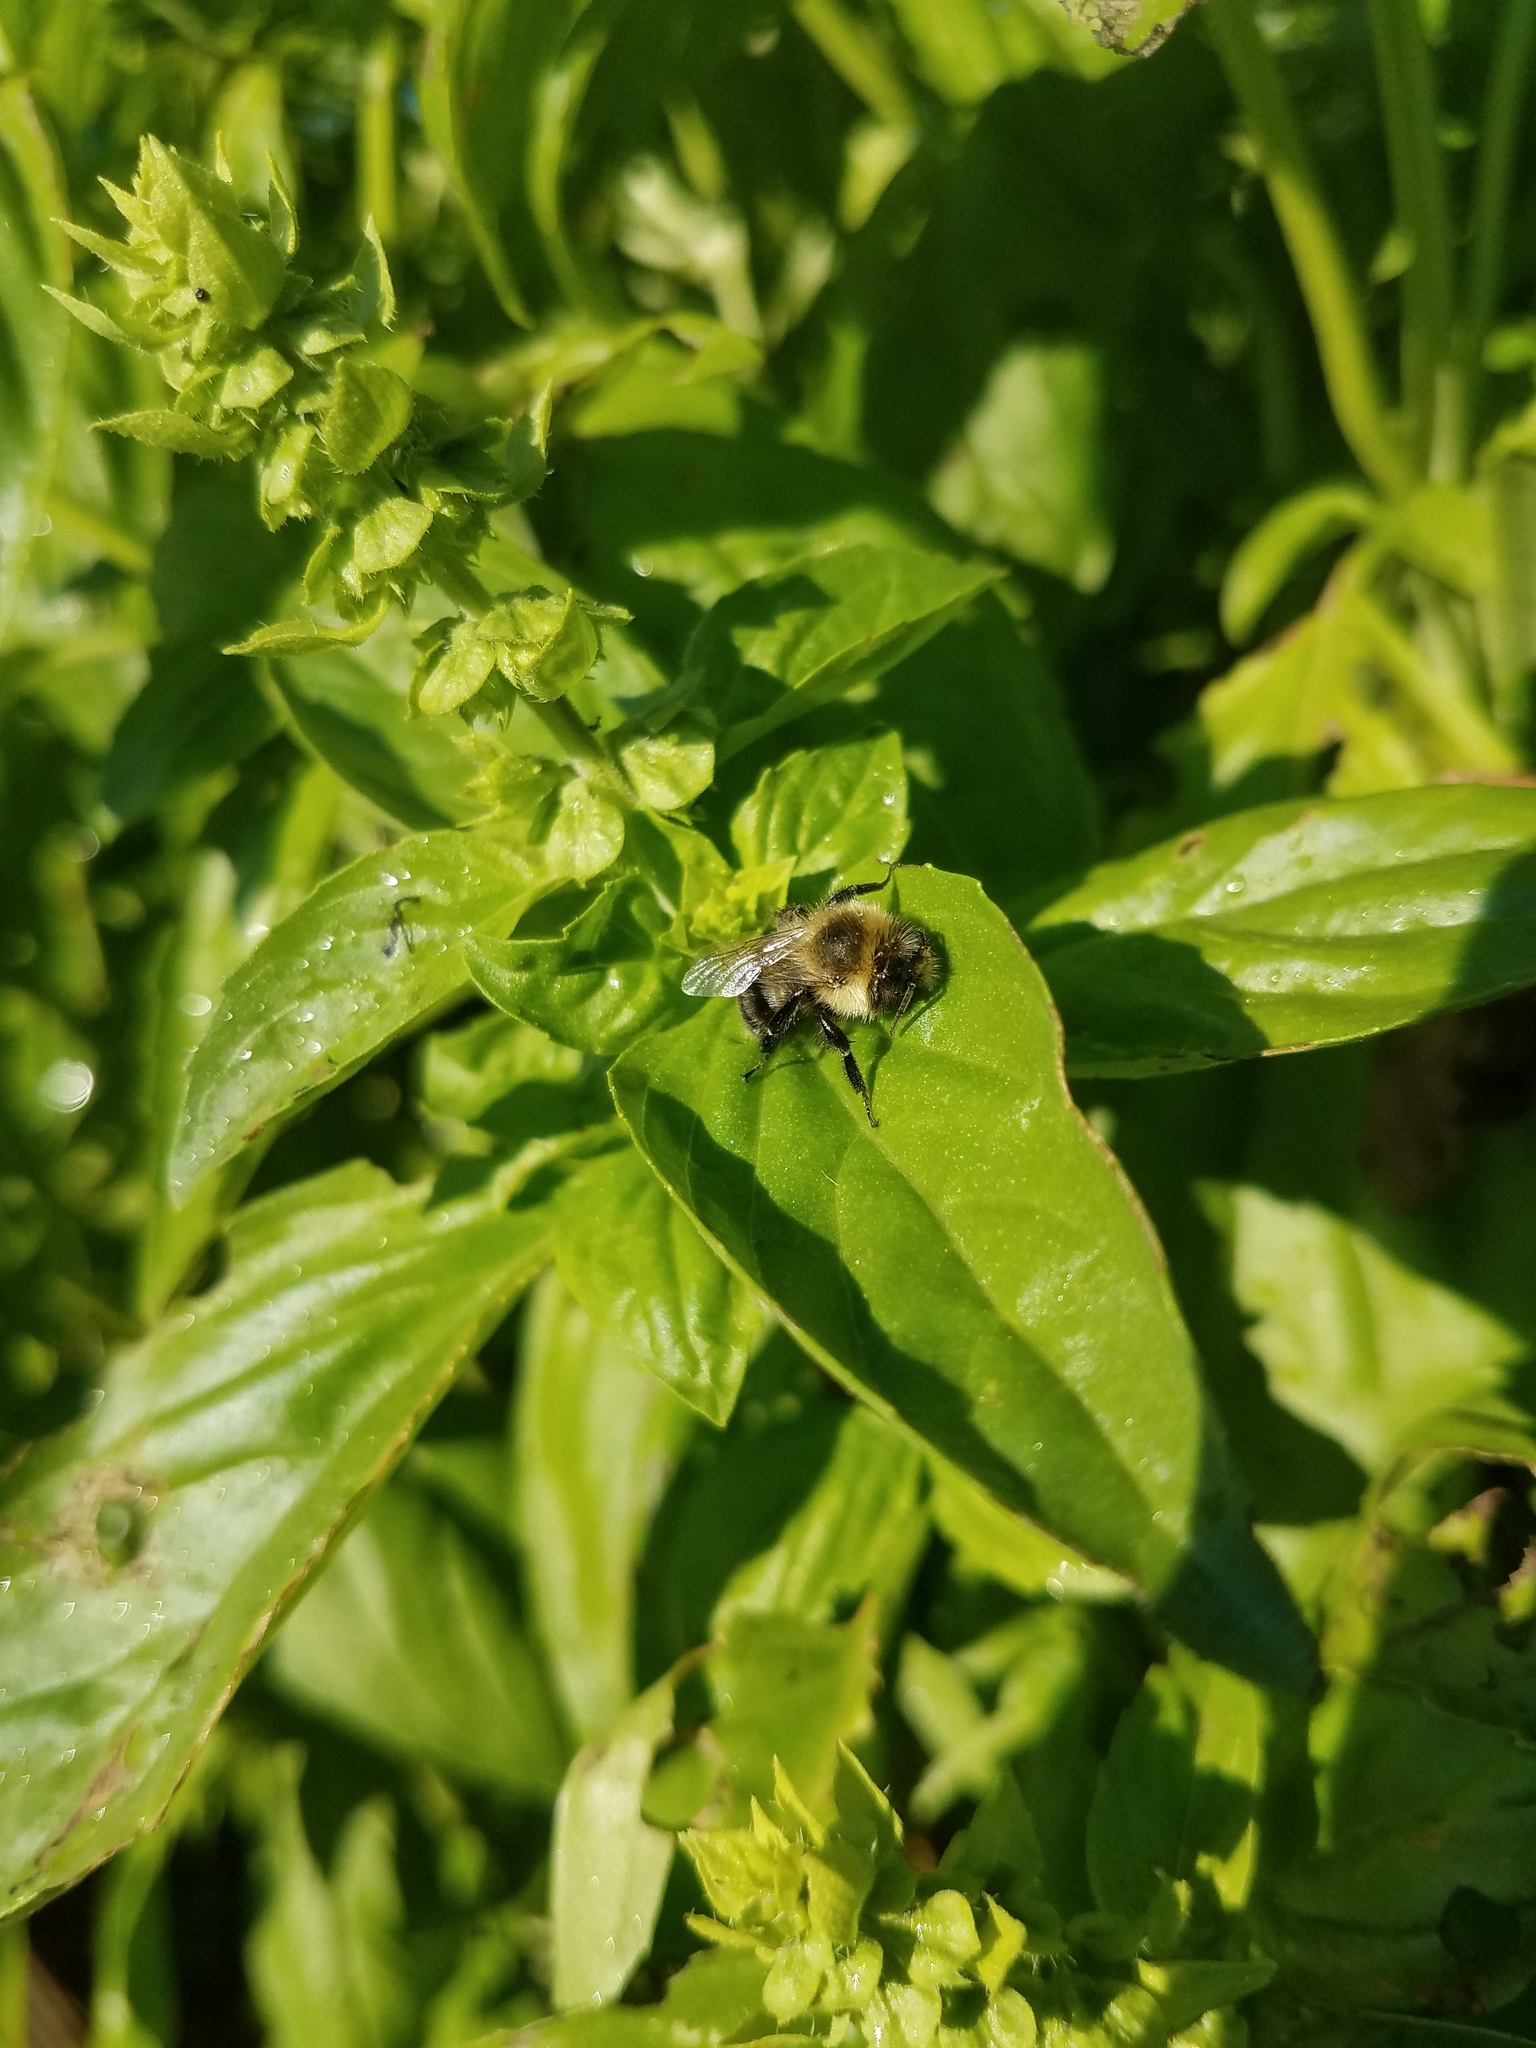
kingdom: Animalia
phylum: Arthropoda
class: Insecta
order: Hymenoptera
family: Apidae
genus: Bombus
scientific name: Bombus impatiens
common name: Common eastern bumble bee
